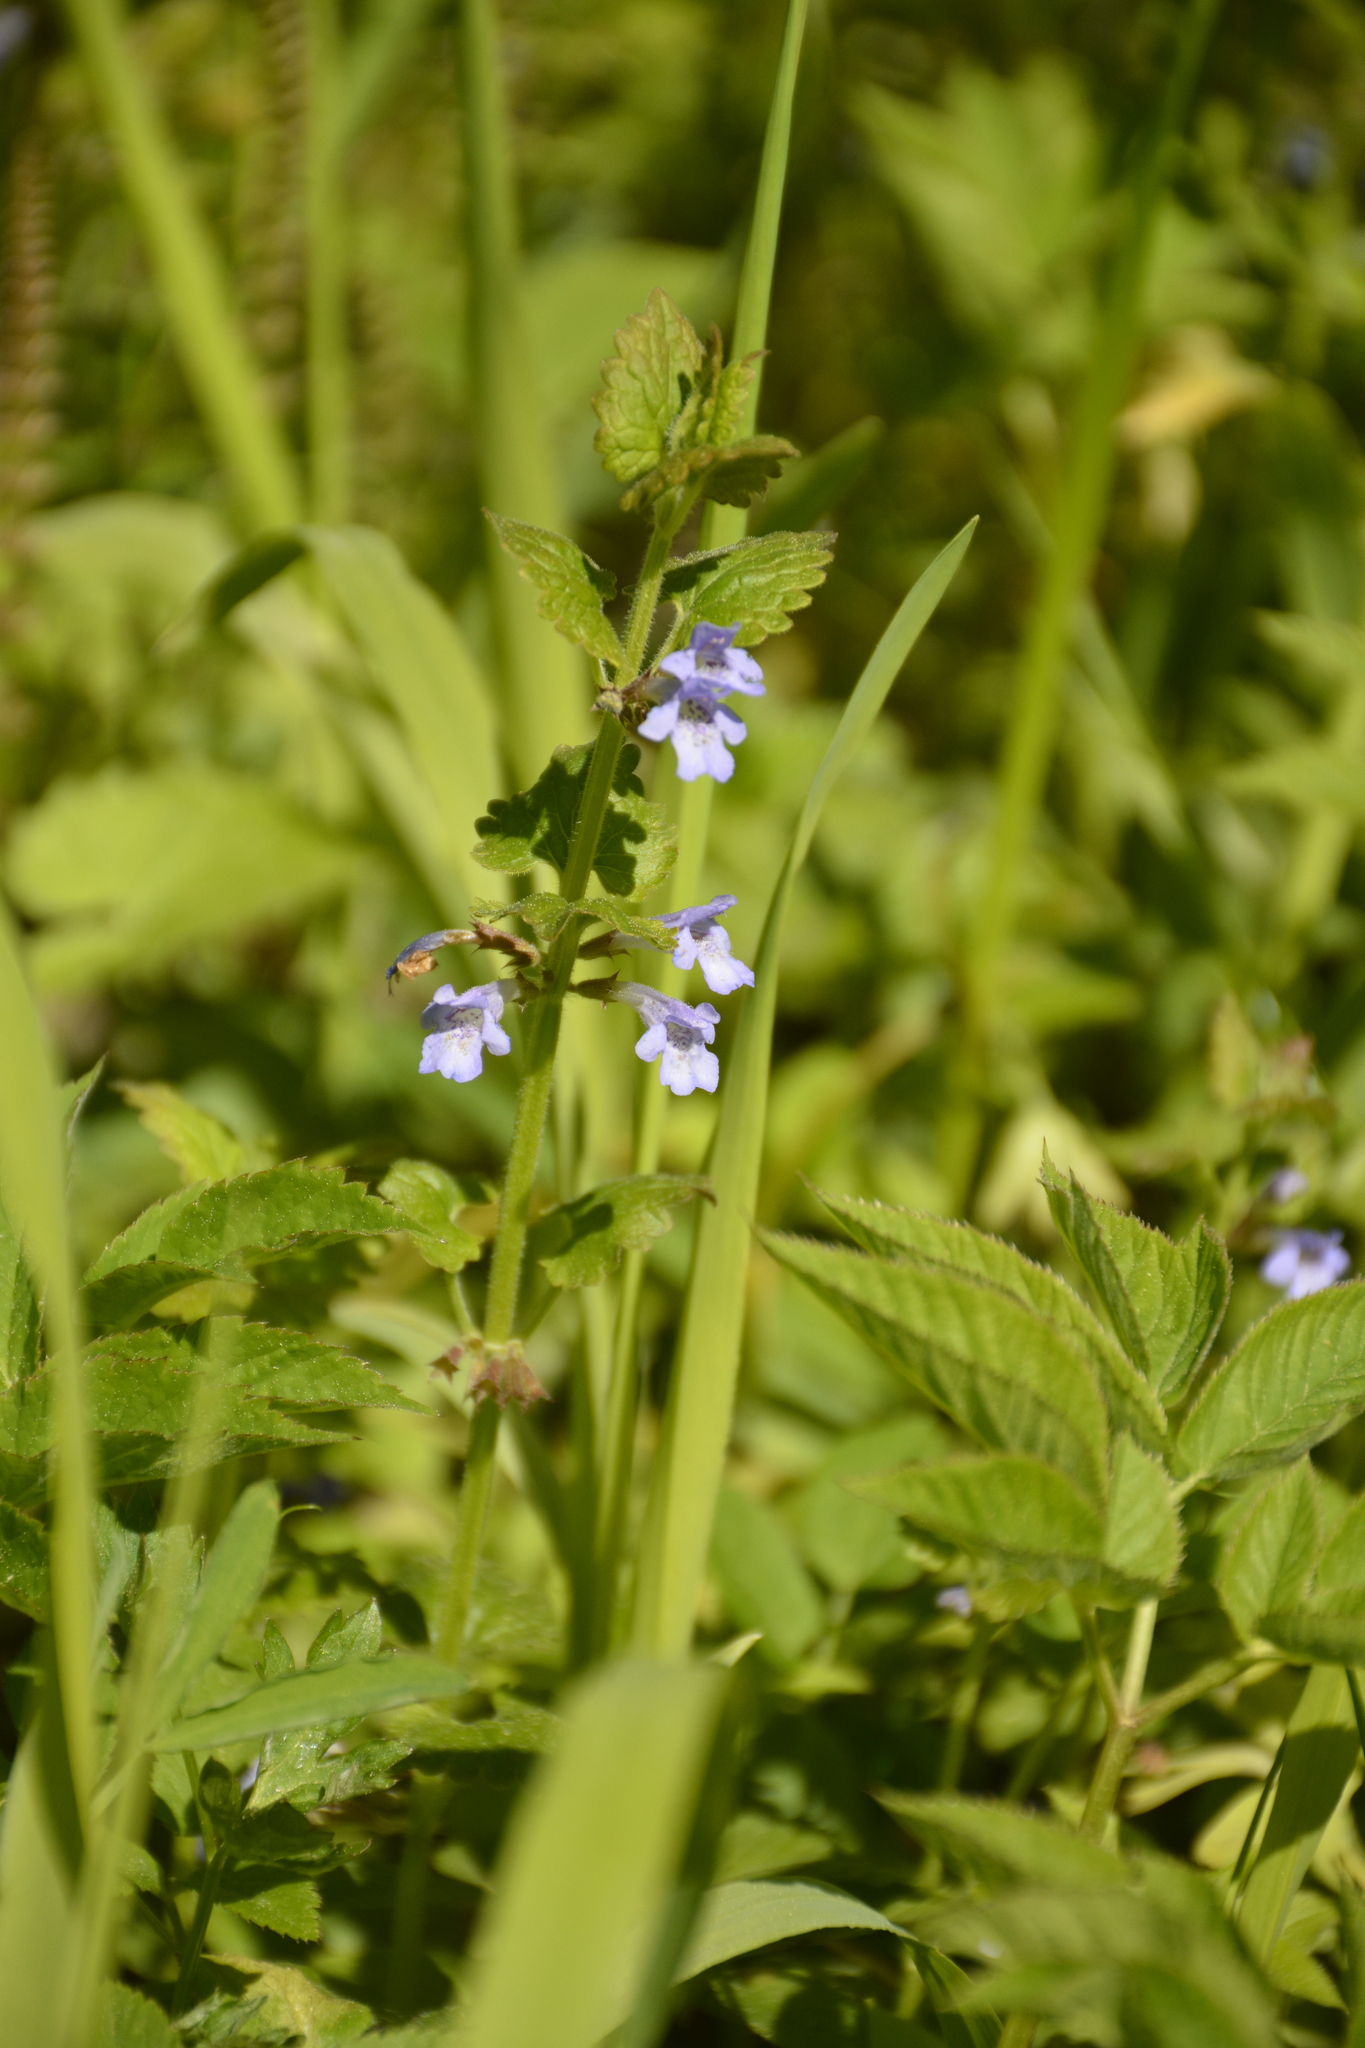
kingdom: Plantae
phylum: Tracheophyta
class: Magnoliopsida
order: Lamiales
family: Lamiaceae
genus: Glechoma
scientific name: Glechoma hederacea
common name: Ground ivy
